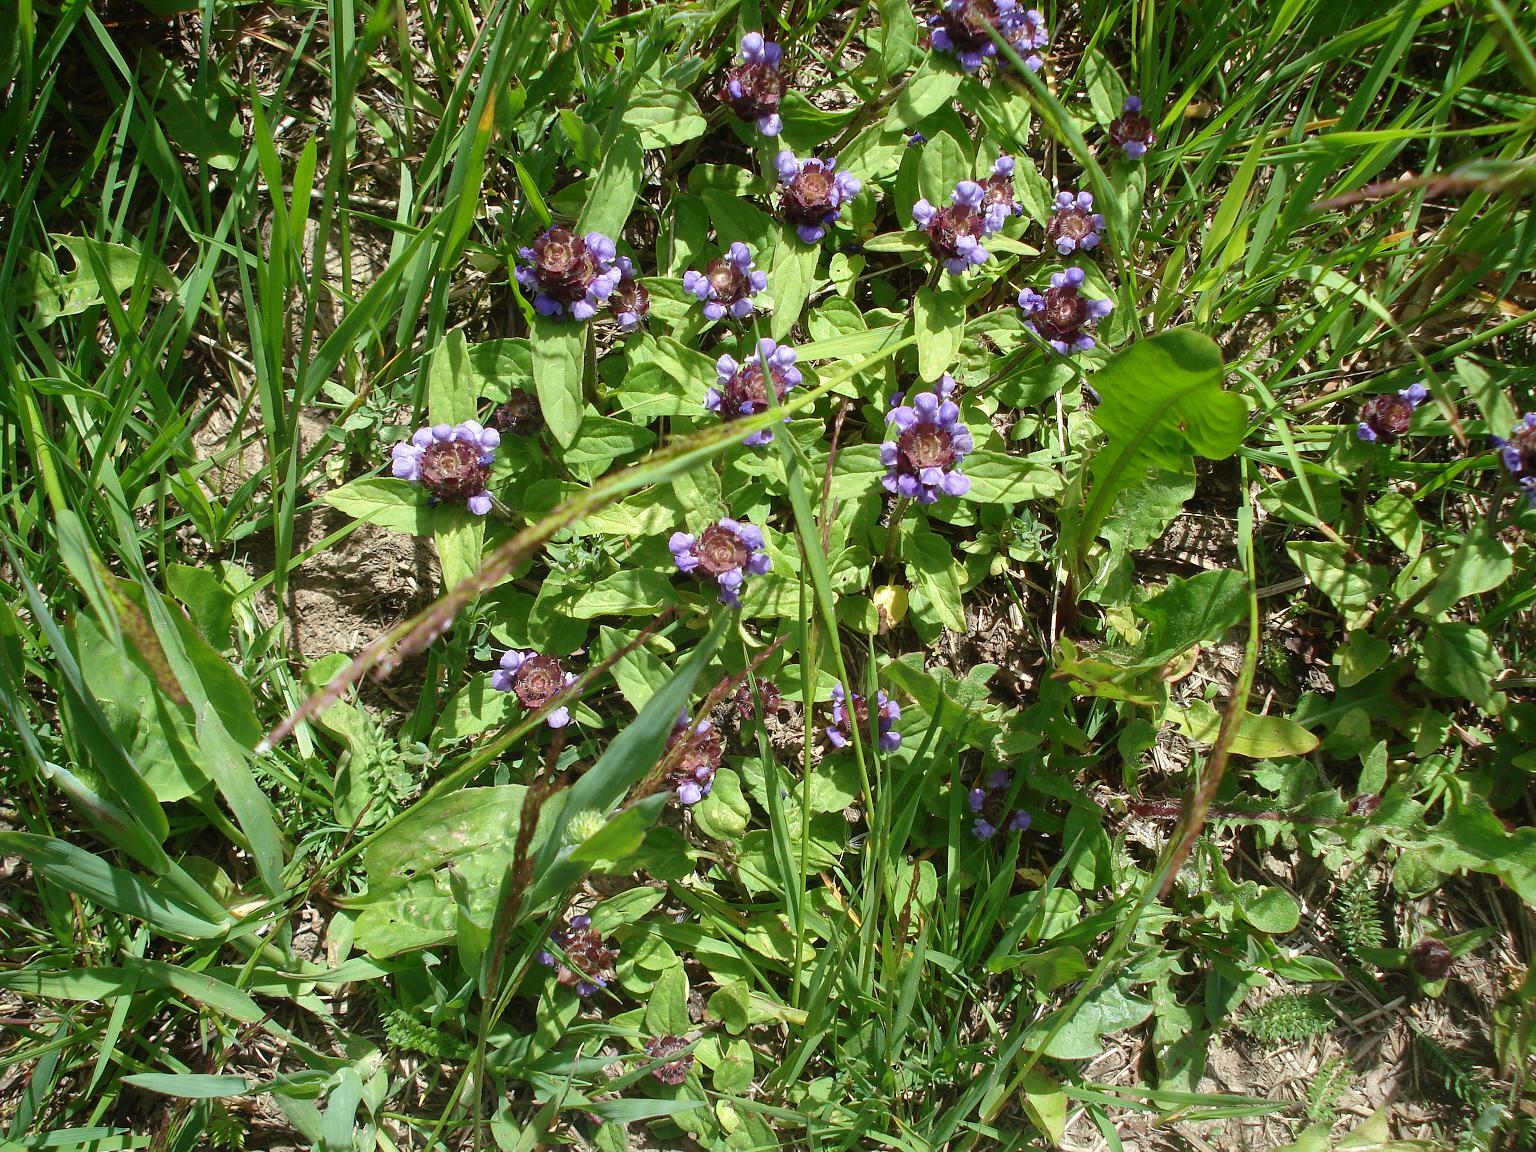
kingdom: Plantae
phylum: Tracheophyta
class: Magnoliopsida
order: Lamiales
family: Lamiaceae
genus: Prunella
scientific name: Prunella vulgaris
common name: Heal-all
